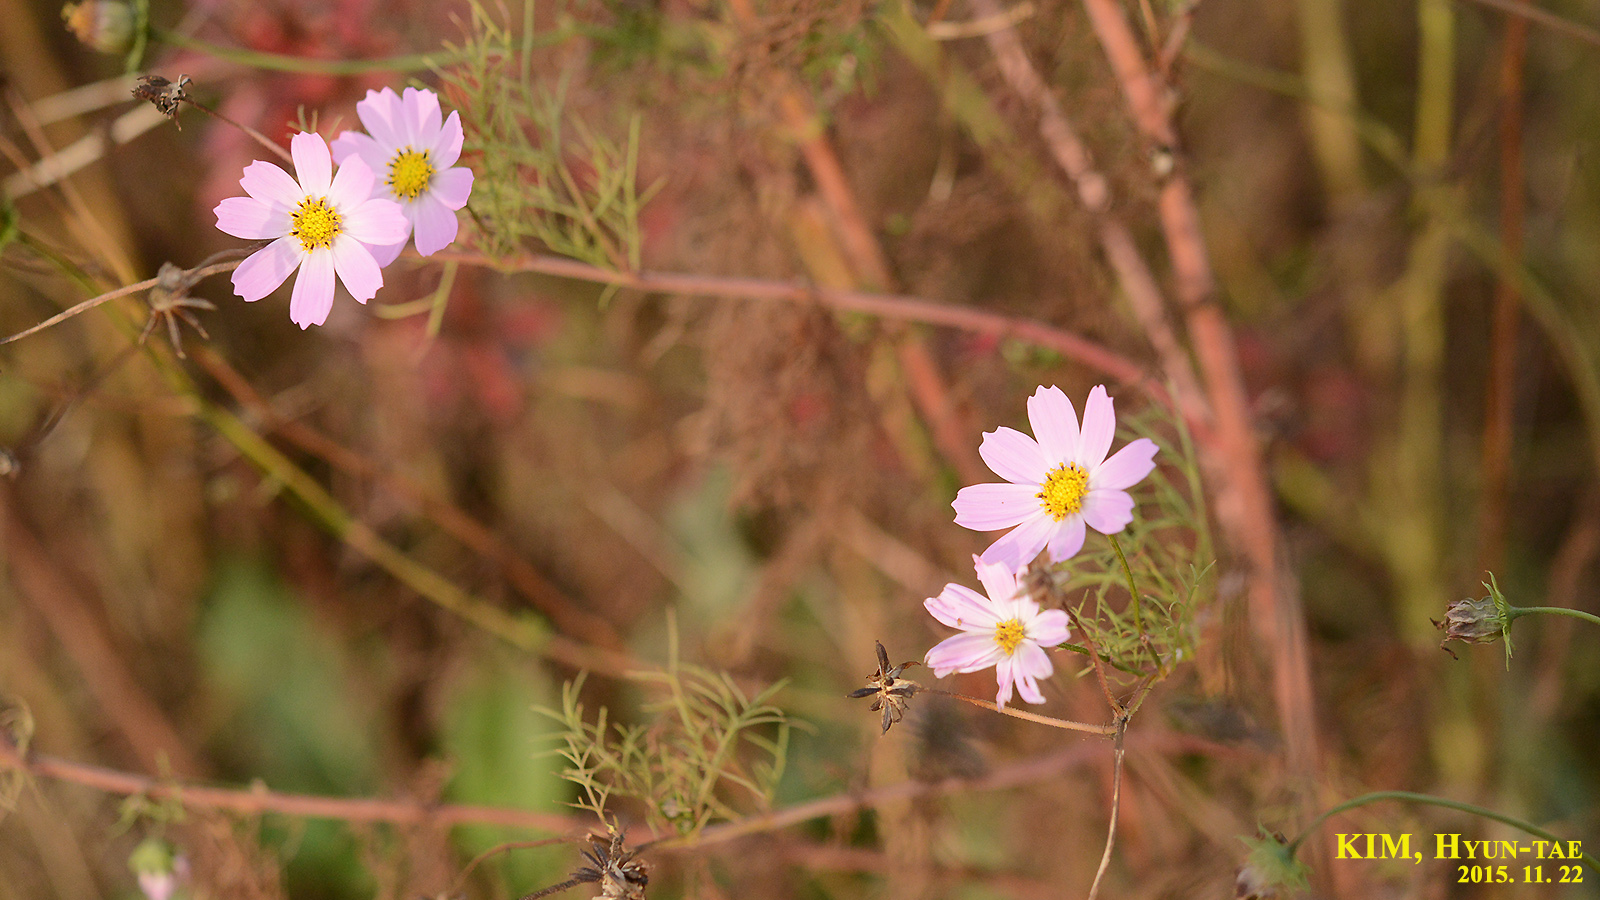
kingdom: Plantae
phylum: Tracheophyta
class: Magnoliopsida
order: Asterales
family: Asteraceae
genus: Cosmos
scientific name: Cosmos bipinnatus
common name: Garden cosmos
